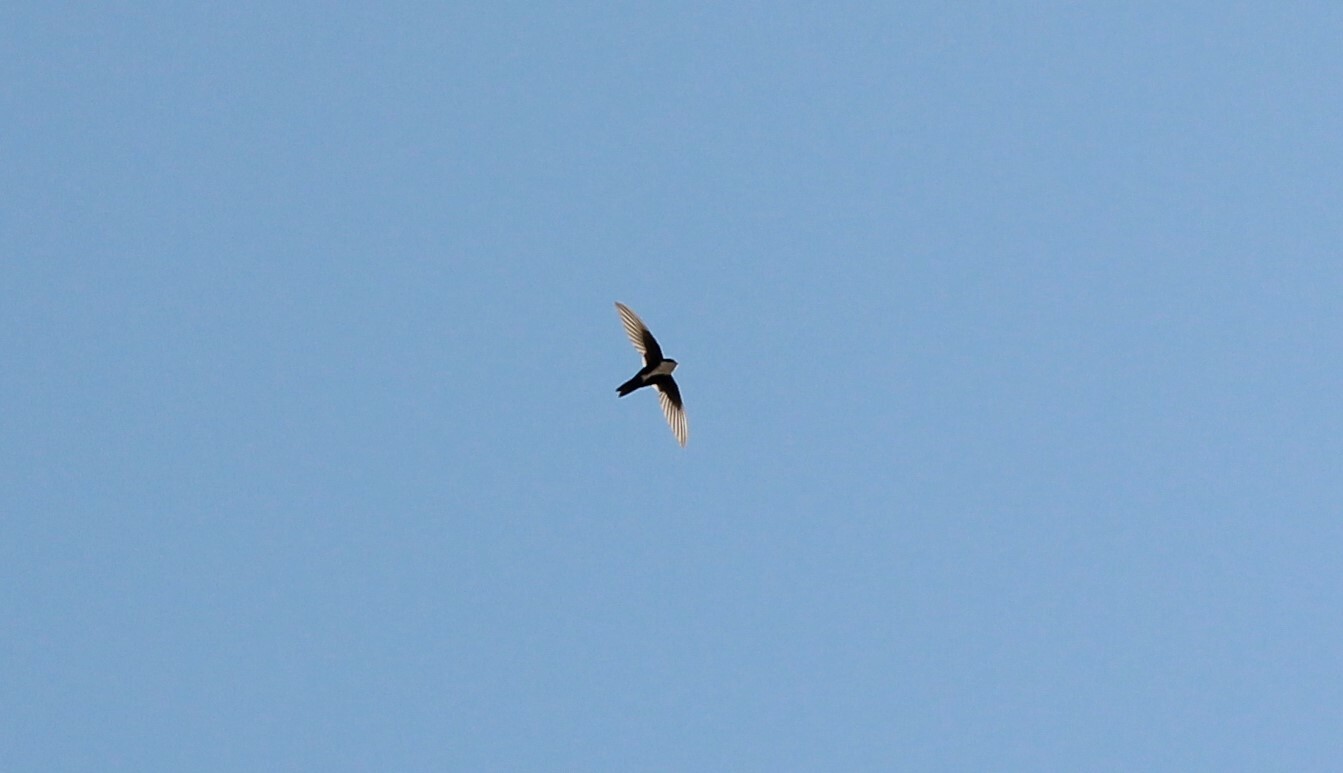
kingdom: Animalia
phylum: Chordata
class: Aves
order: Apodiformes
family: Apodidae
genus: Aeronautes
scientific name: Aeronautes saxatalis
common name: White-throated swift
